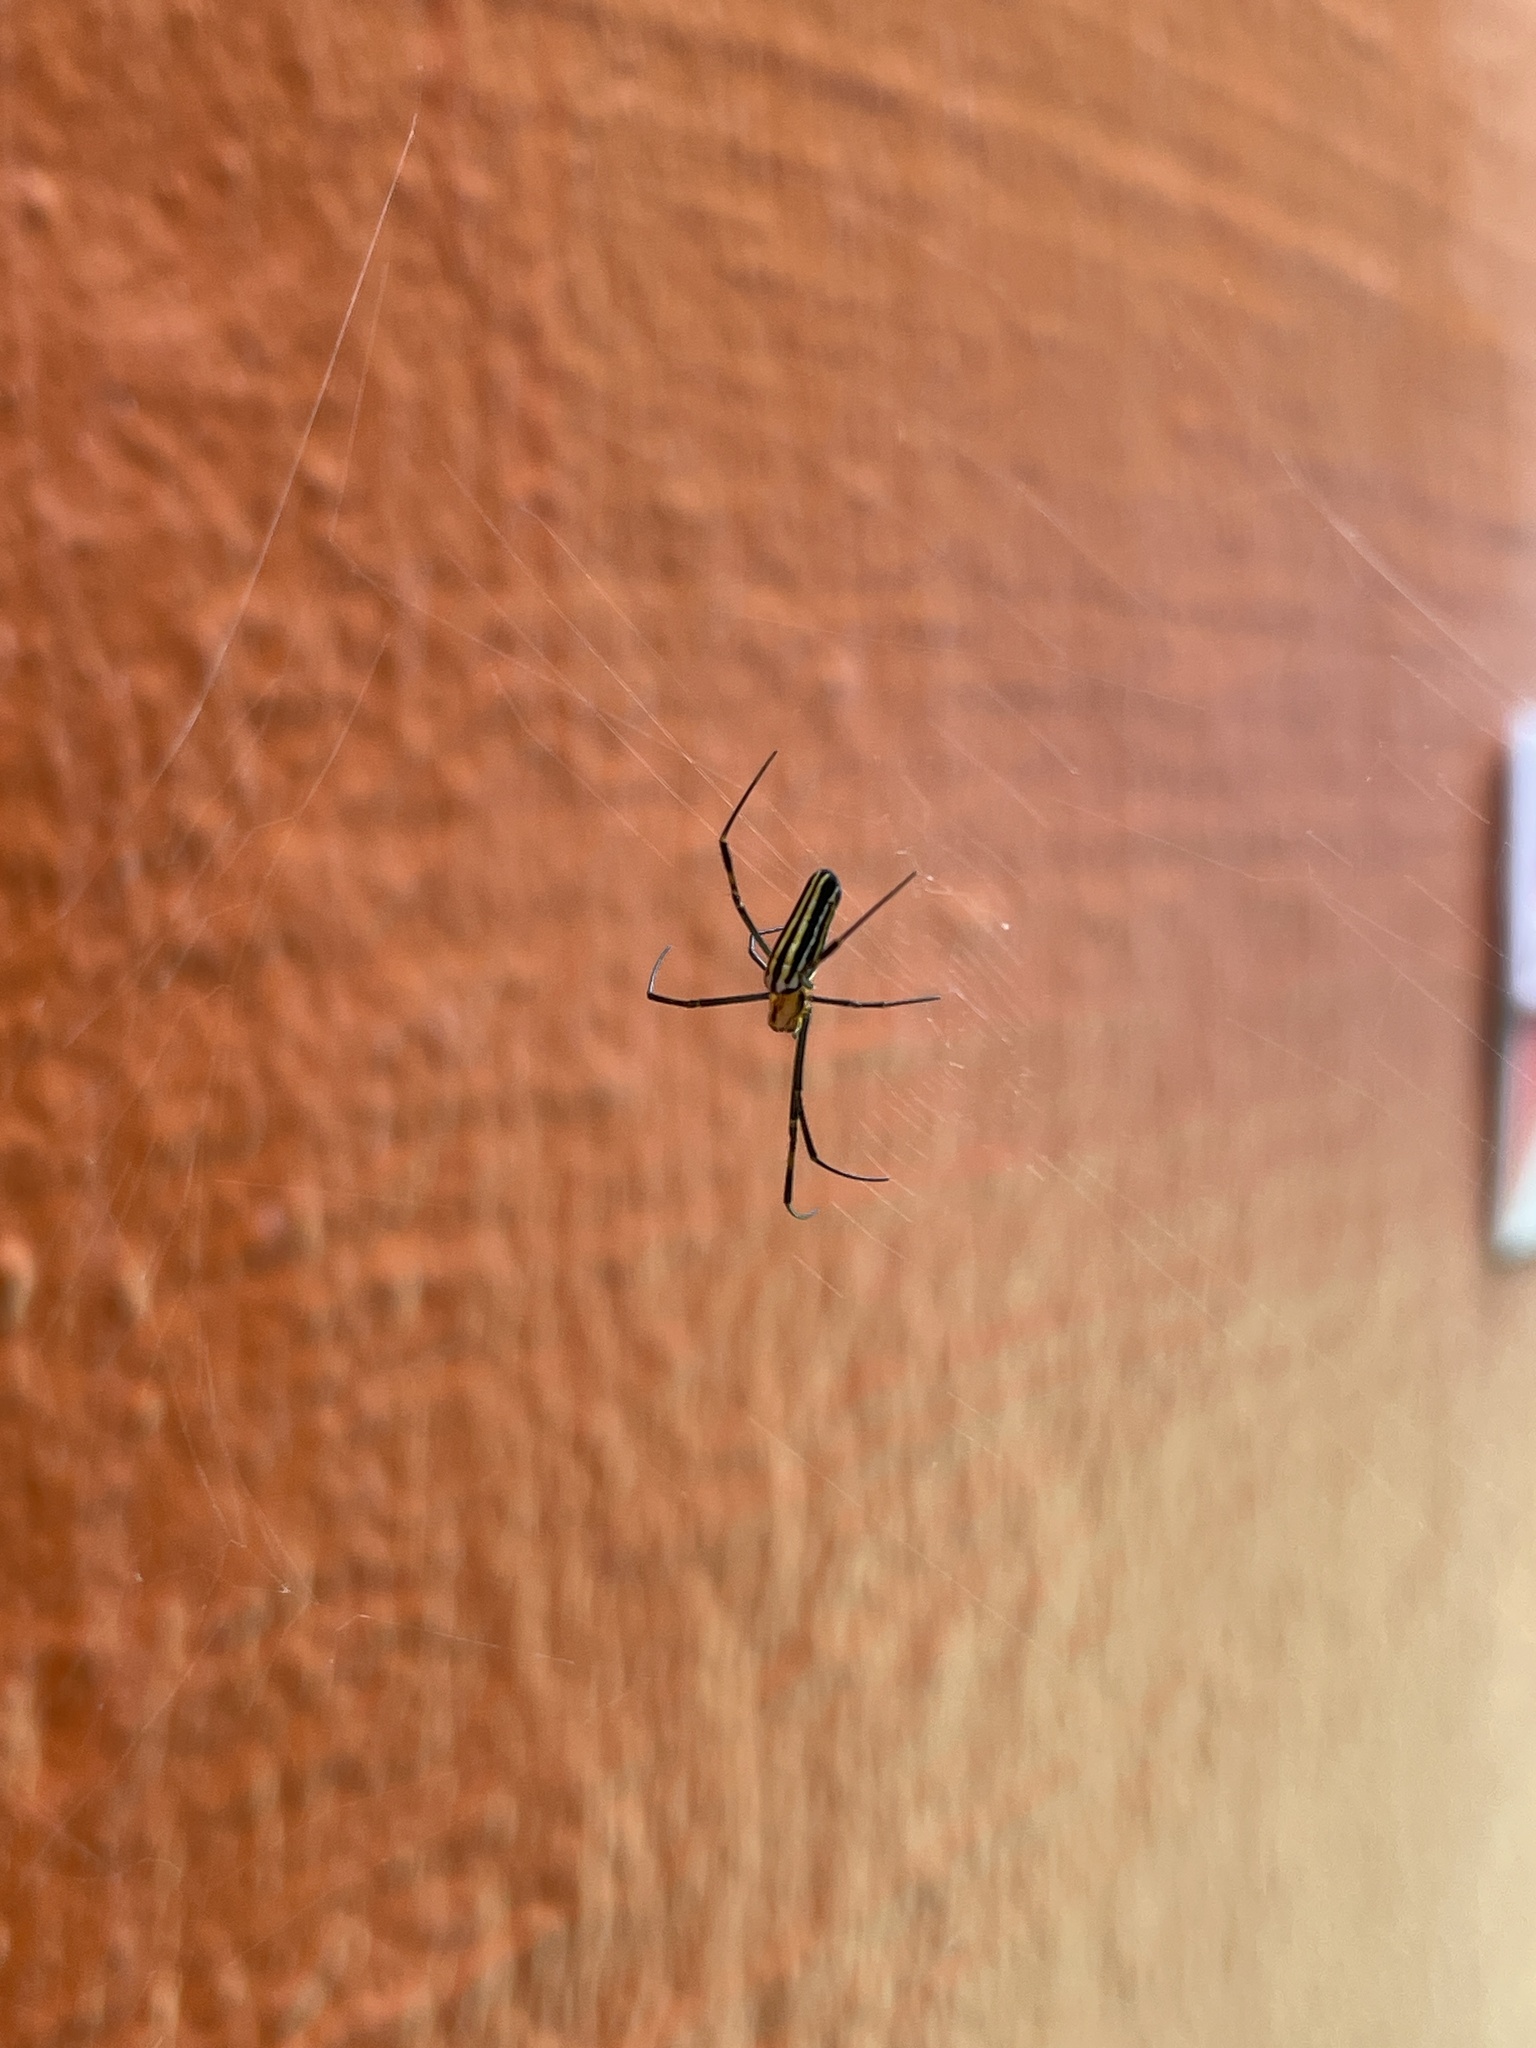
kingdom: Animalia
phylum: Arthropoda
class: Arachnida
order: Araneae
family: Araneidae
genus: Nephila
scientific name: Nephila pilipes
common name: Giant golden orb weaver
